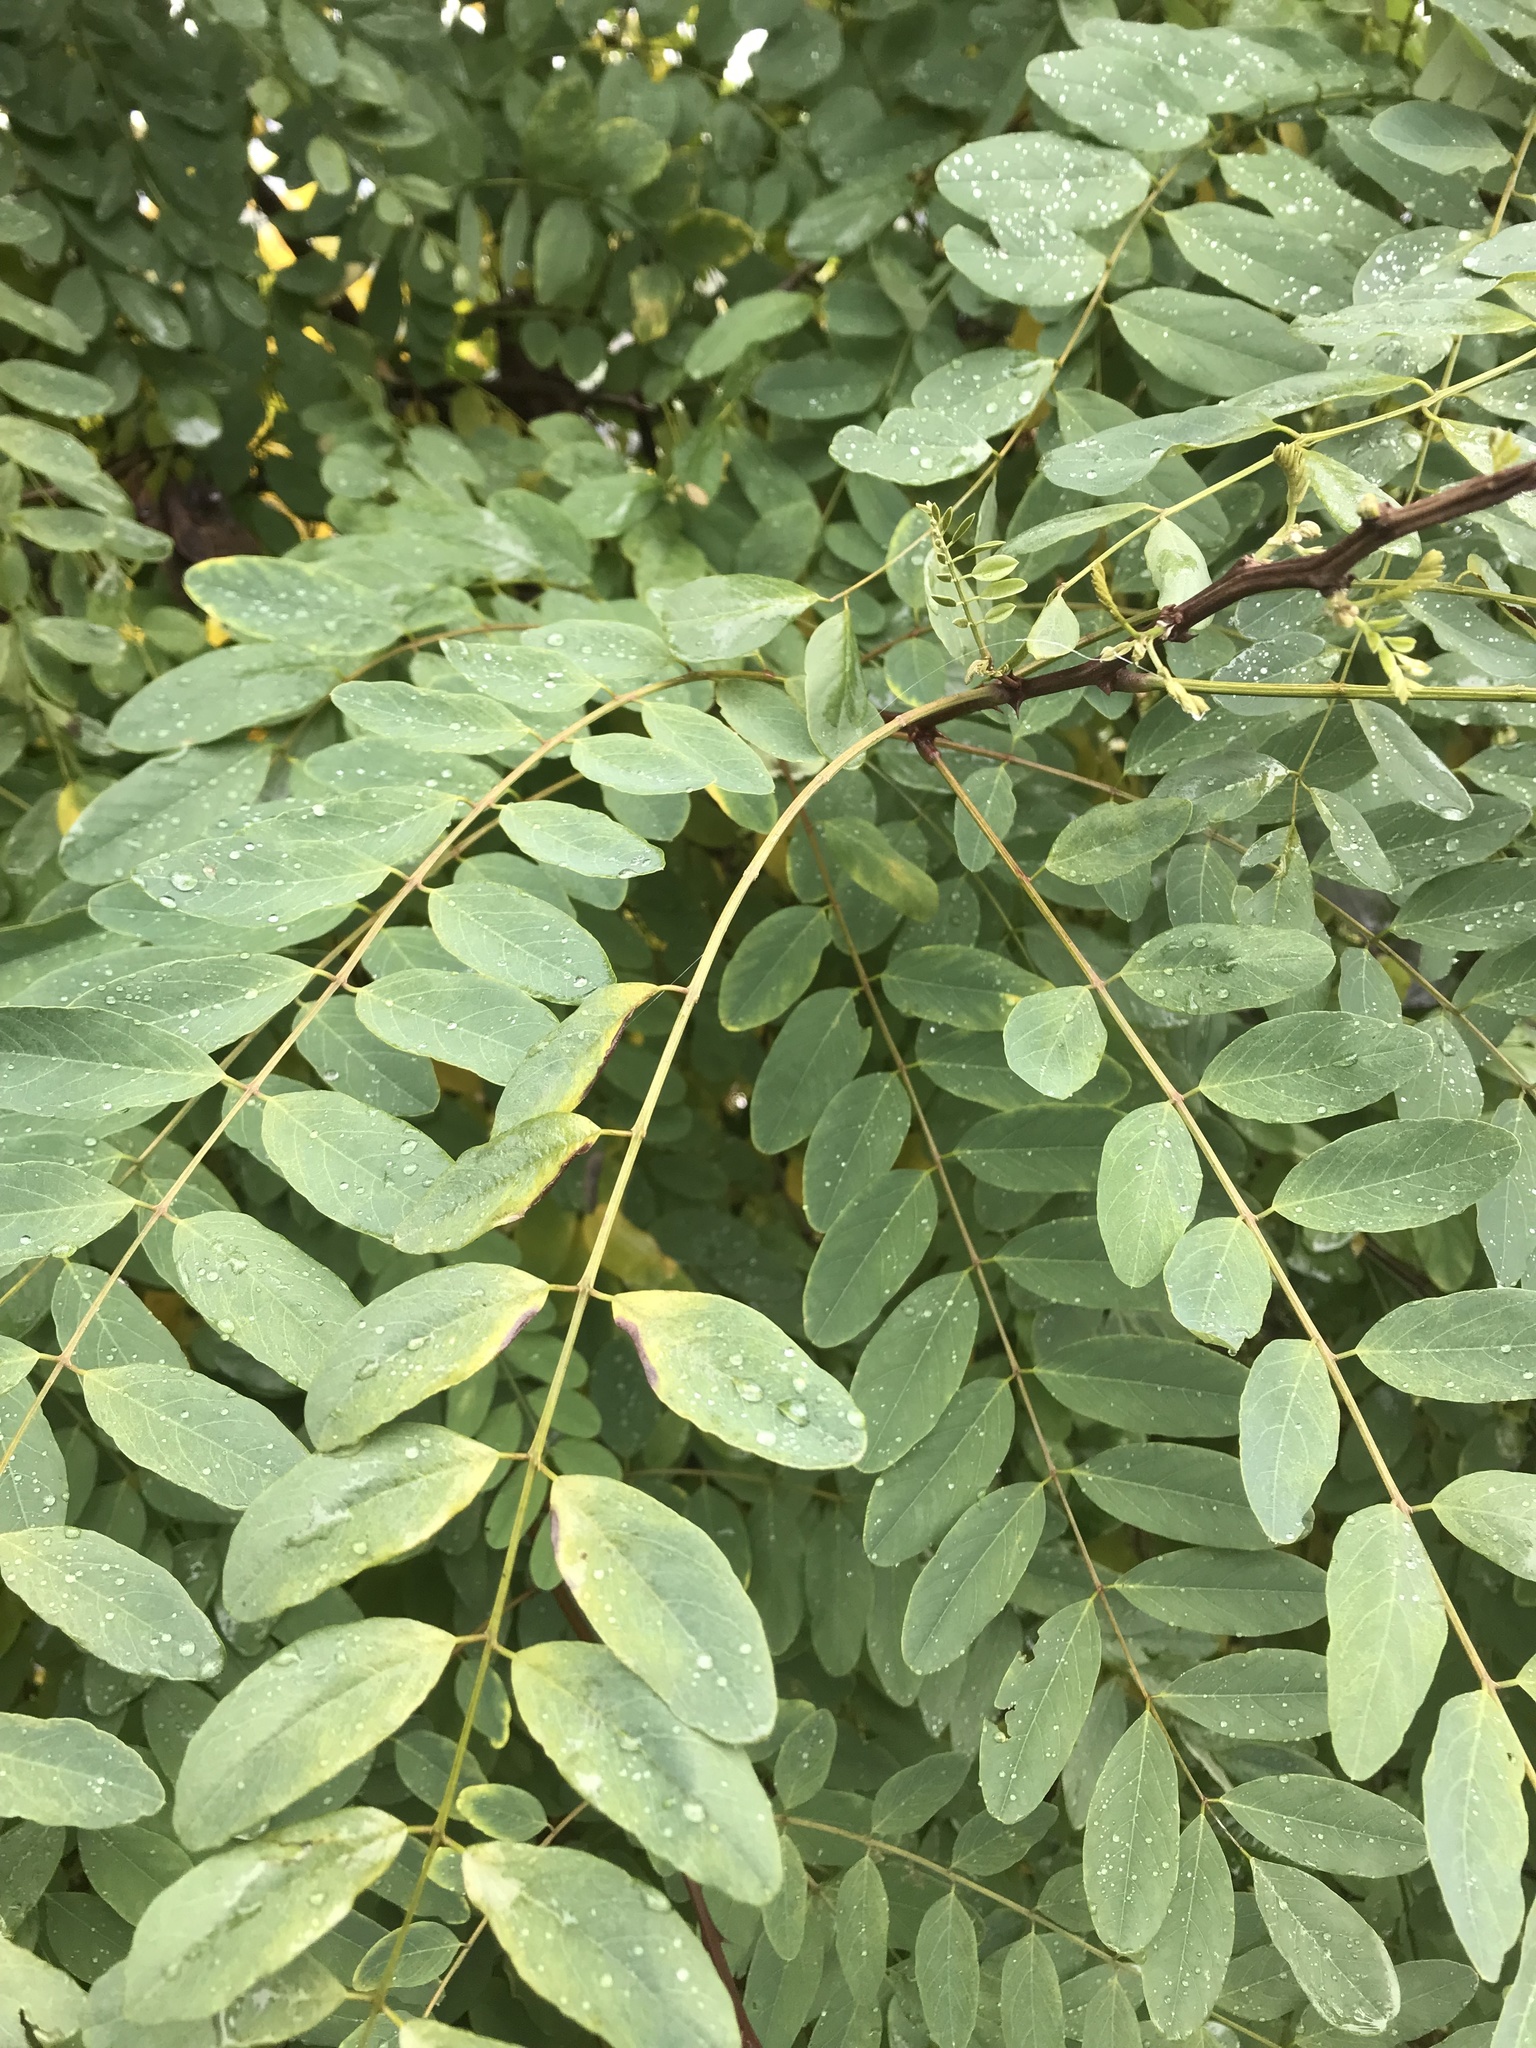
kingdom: Plantae
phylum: Tracheophyta
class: Magnoliopsida
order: Fabales
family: Fabaceae
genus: Robinia
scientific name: Robinia pseudoacacia
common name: Black locust
